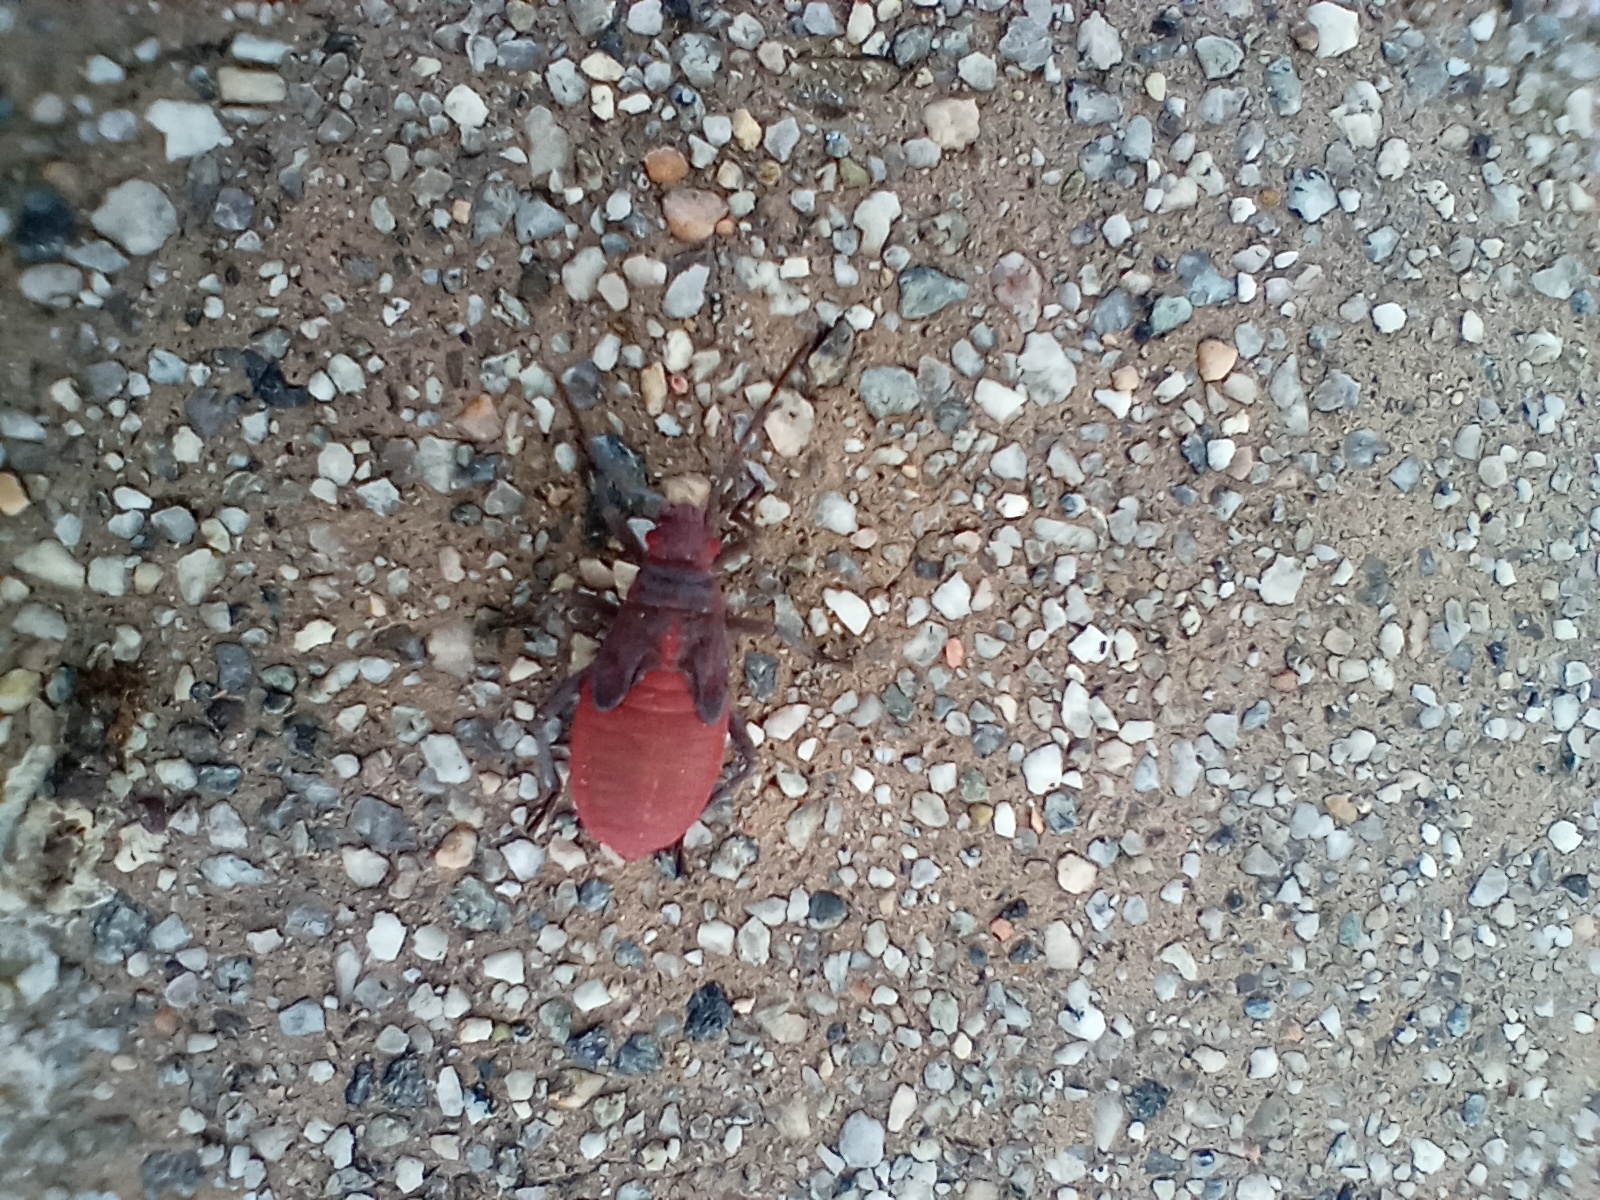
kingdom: Animalia
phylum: Arthropoda
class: Insecta
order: Hemiptera
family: Rhopalidae
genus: Jadera
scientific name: Jadera haematoloma
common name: Red-shouldered bug
